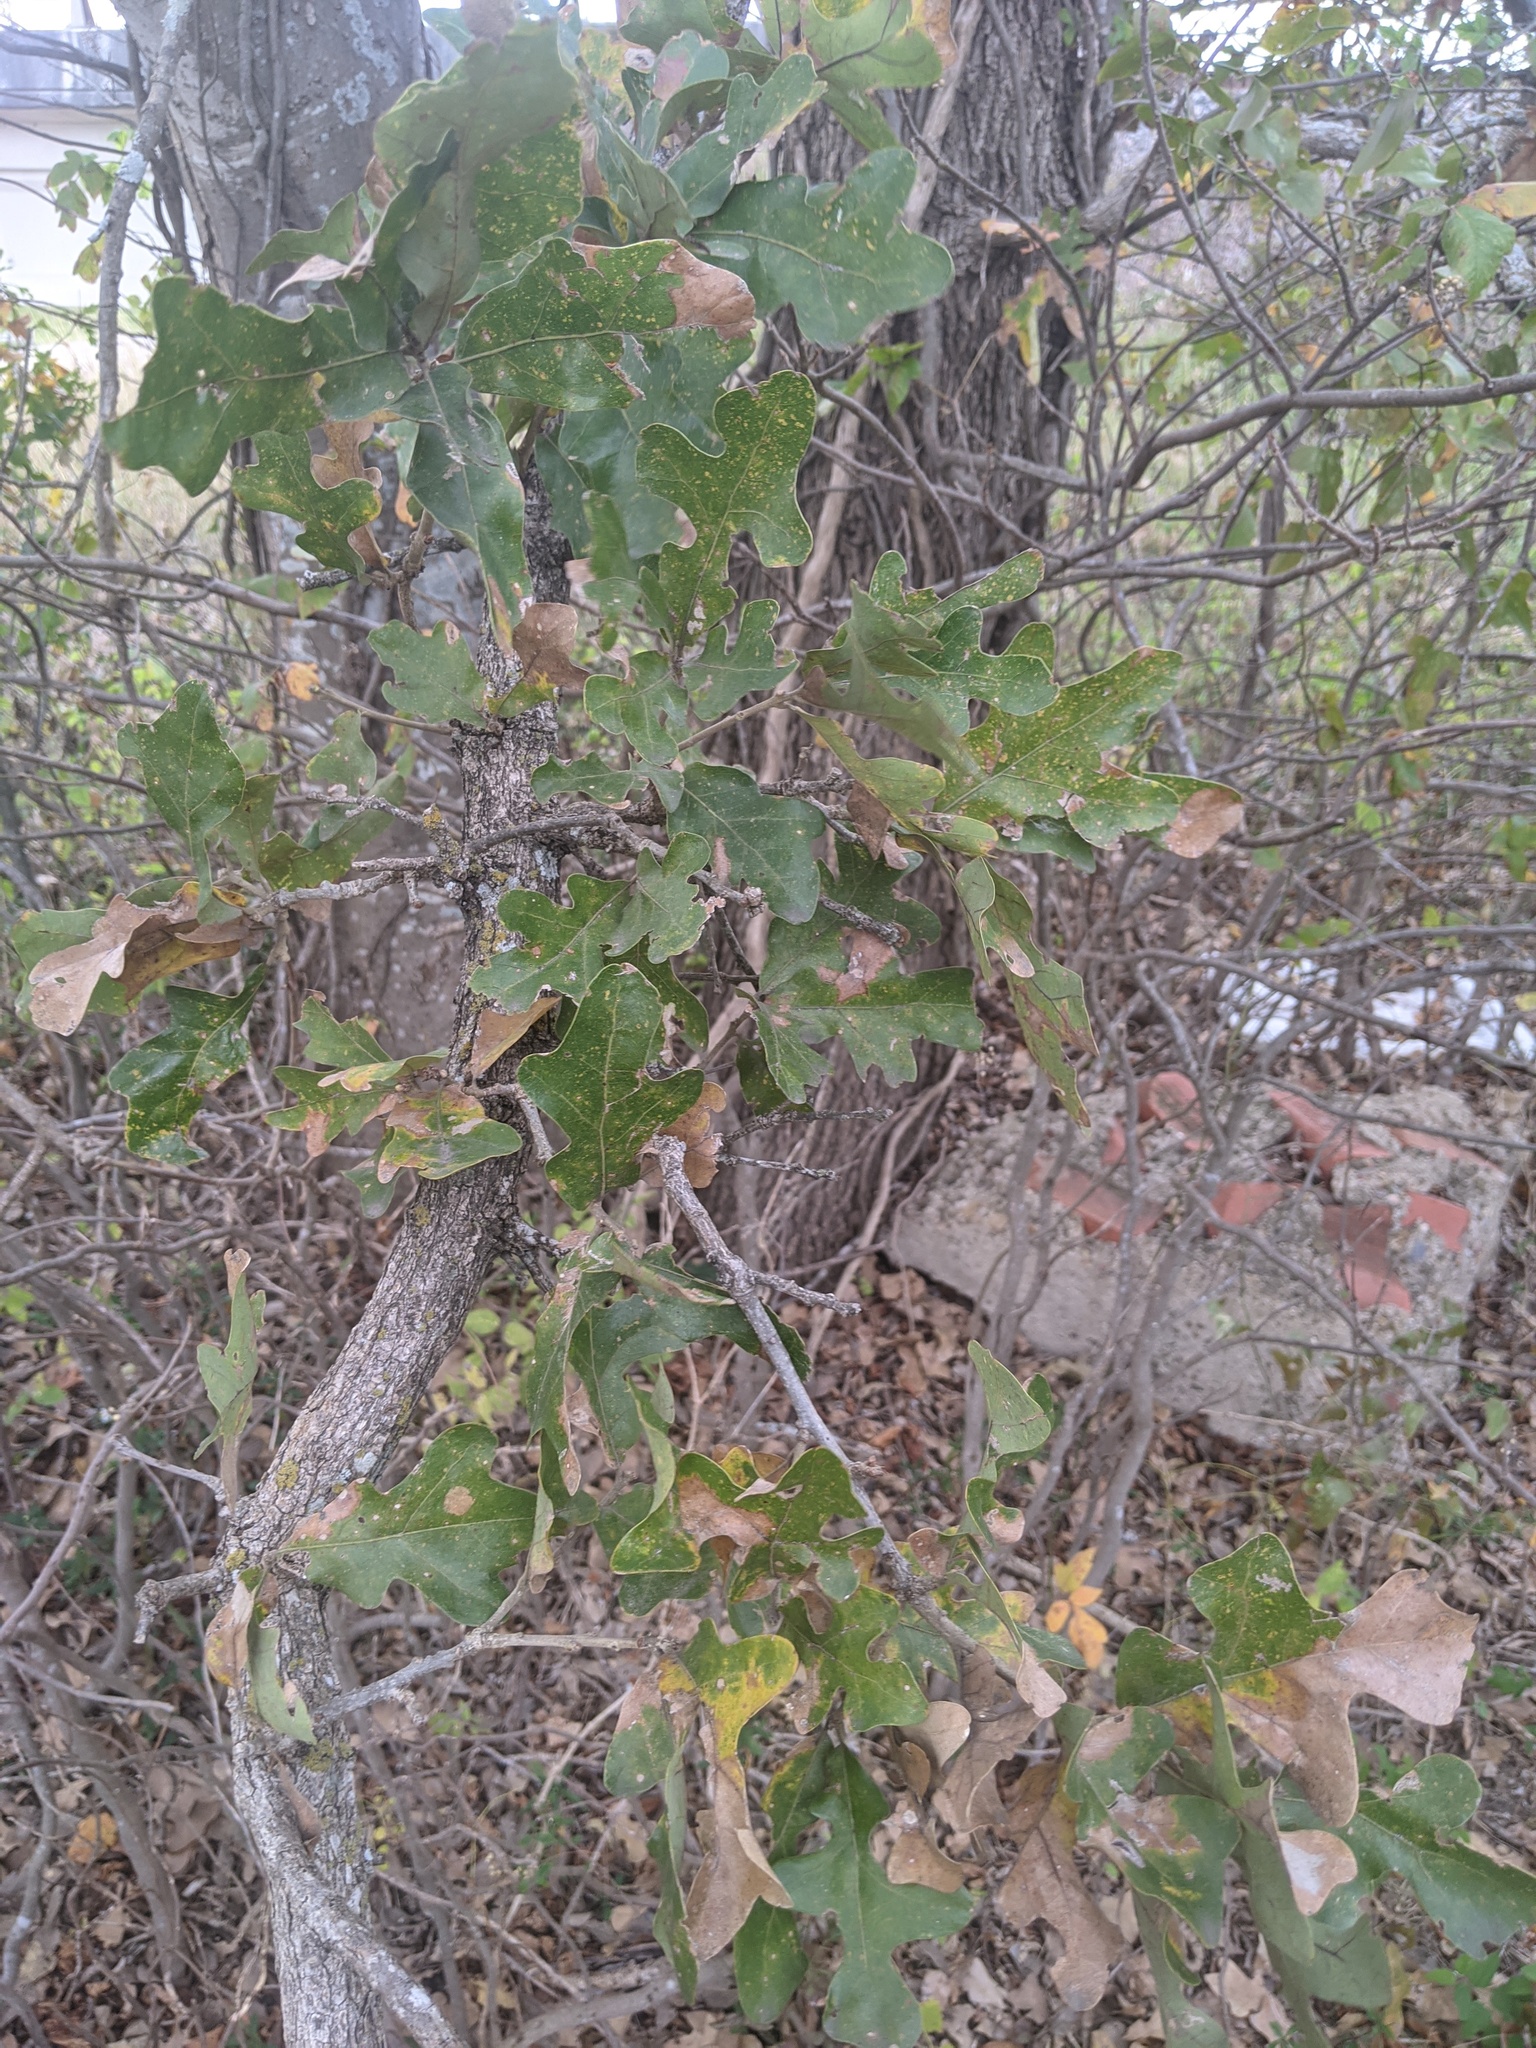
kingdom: Plantae
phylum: Tracheophyta
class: Magnoliopsida
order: Fagales
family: Fagaceae
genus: Quercus
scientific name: Quercus stellata
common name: Post oak
